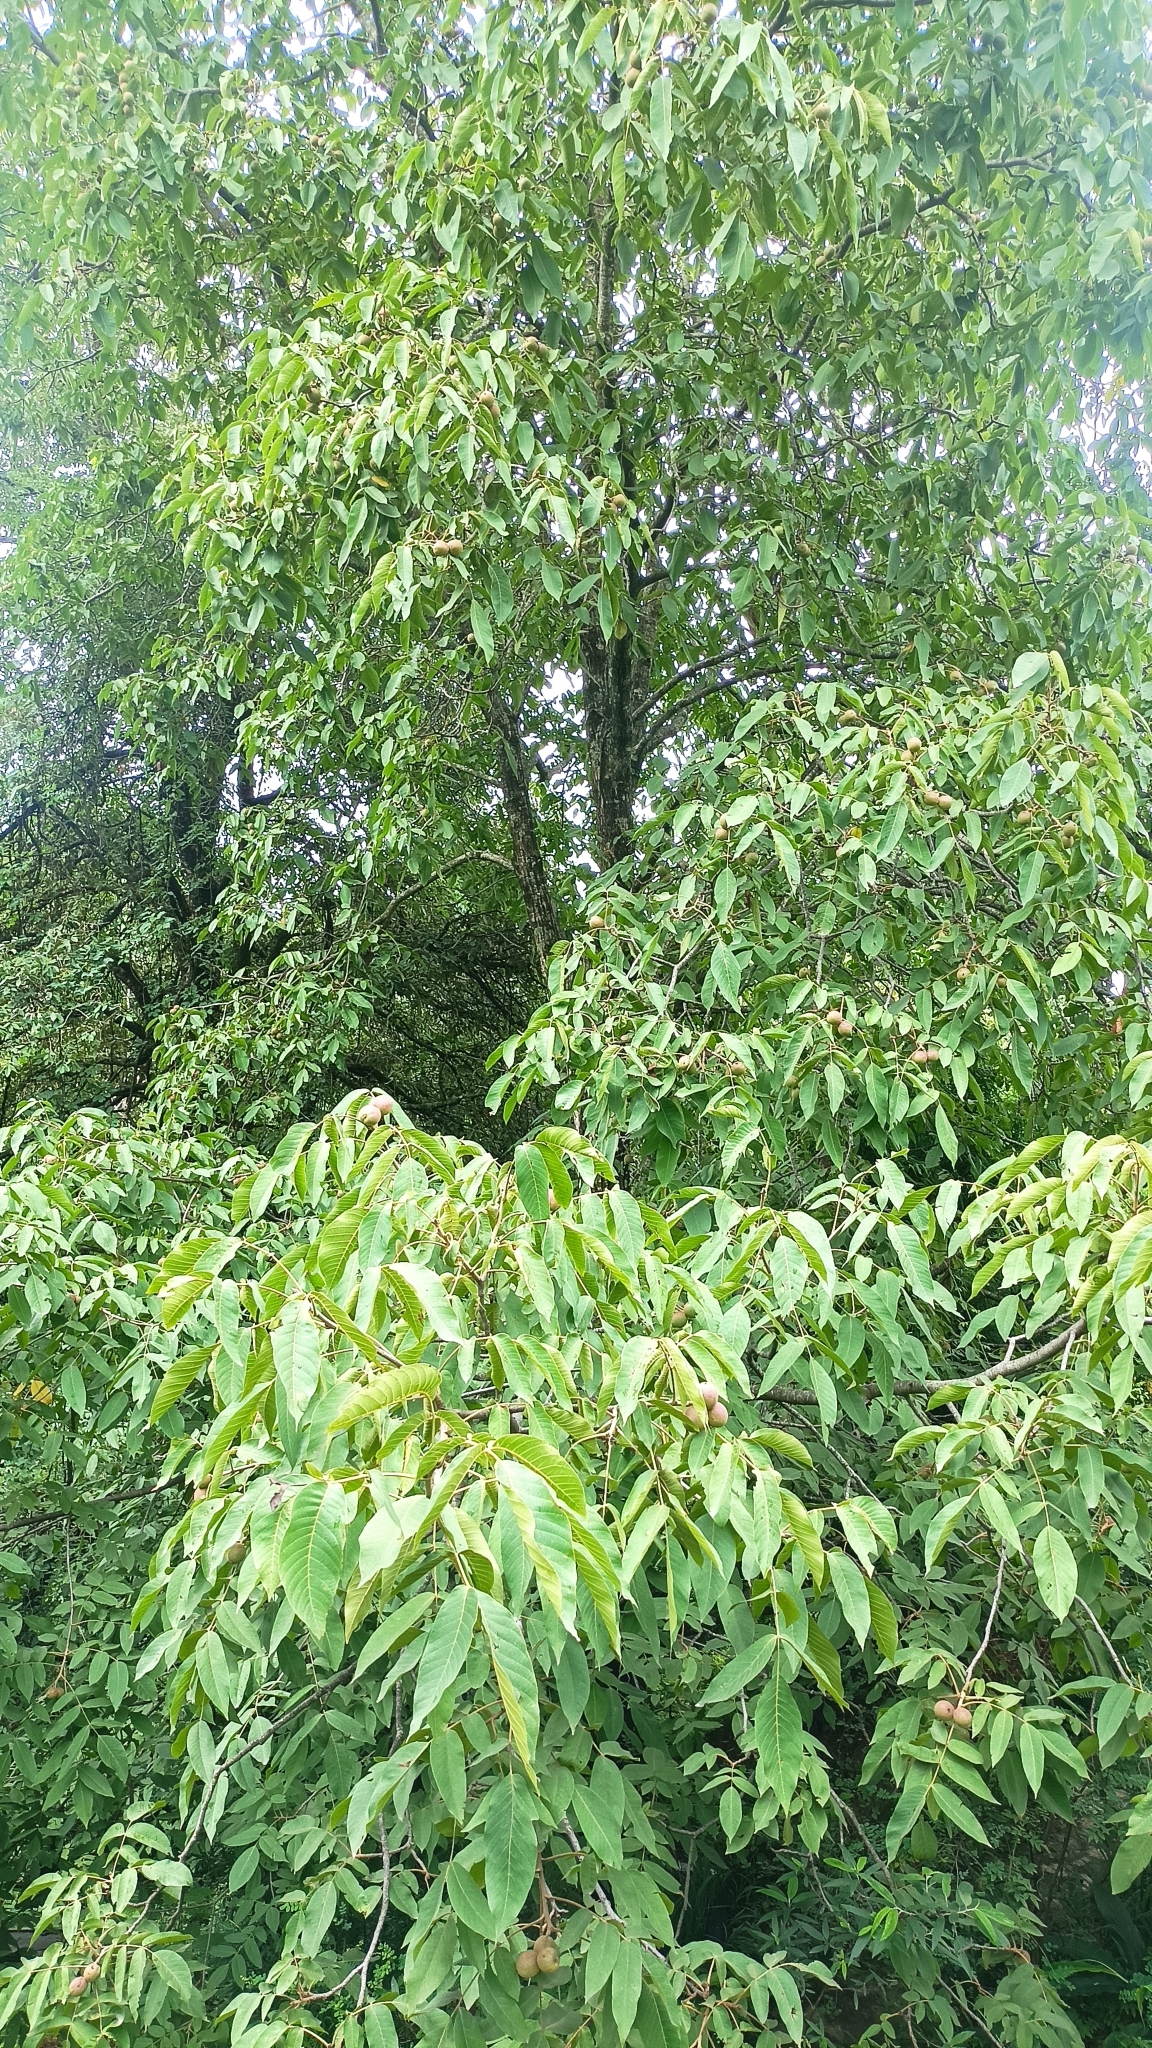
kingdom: Plantae
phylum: Tracheophyta
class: Magnoliopsida
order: Fagales
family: Juglandaceae
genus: Juglans
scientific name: Juglans regia
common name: Walnut
